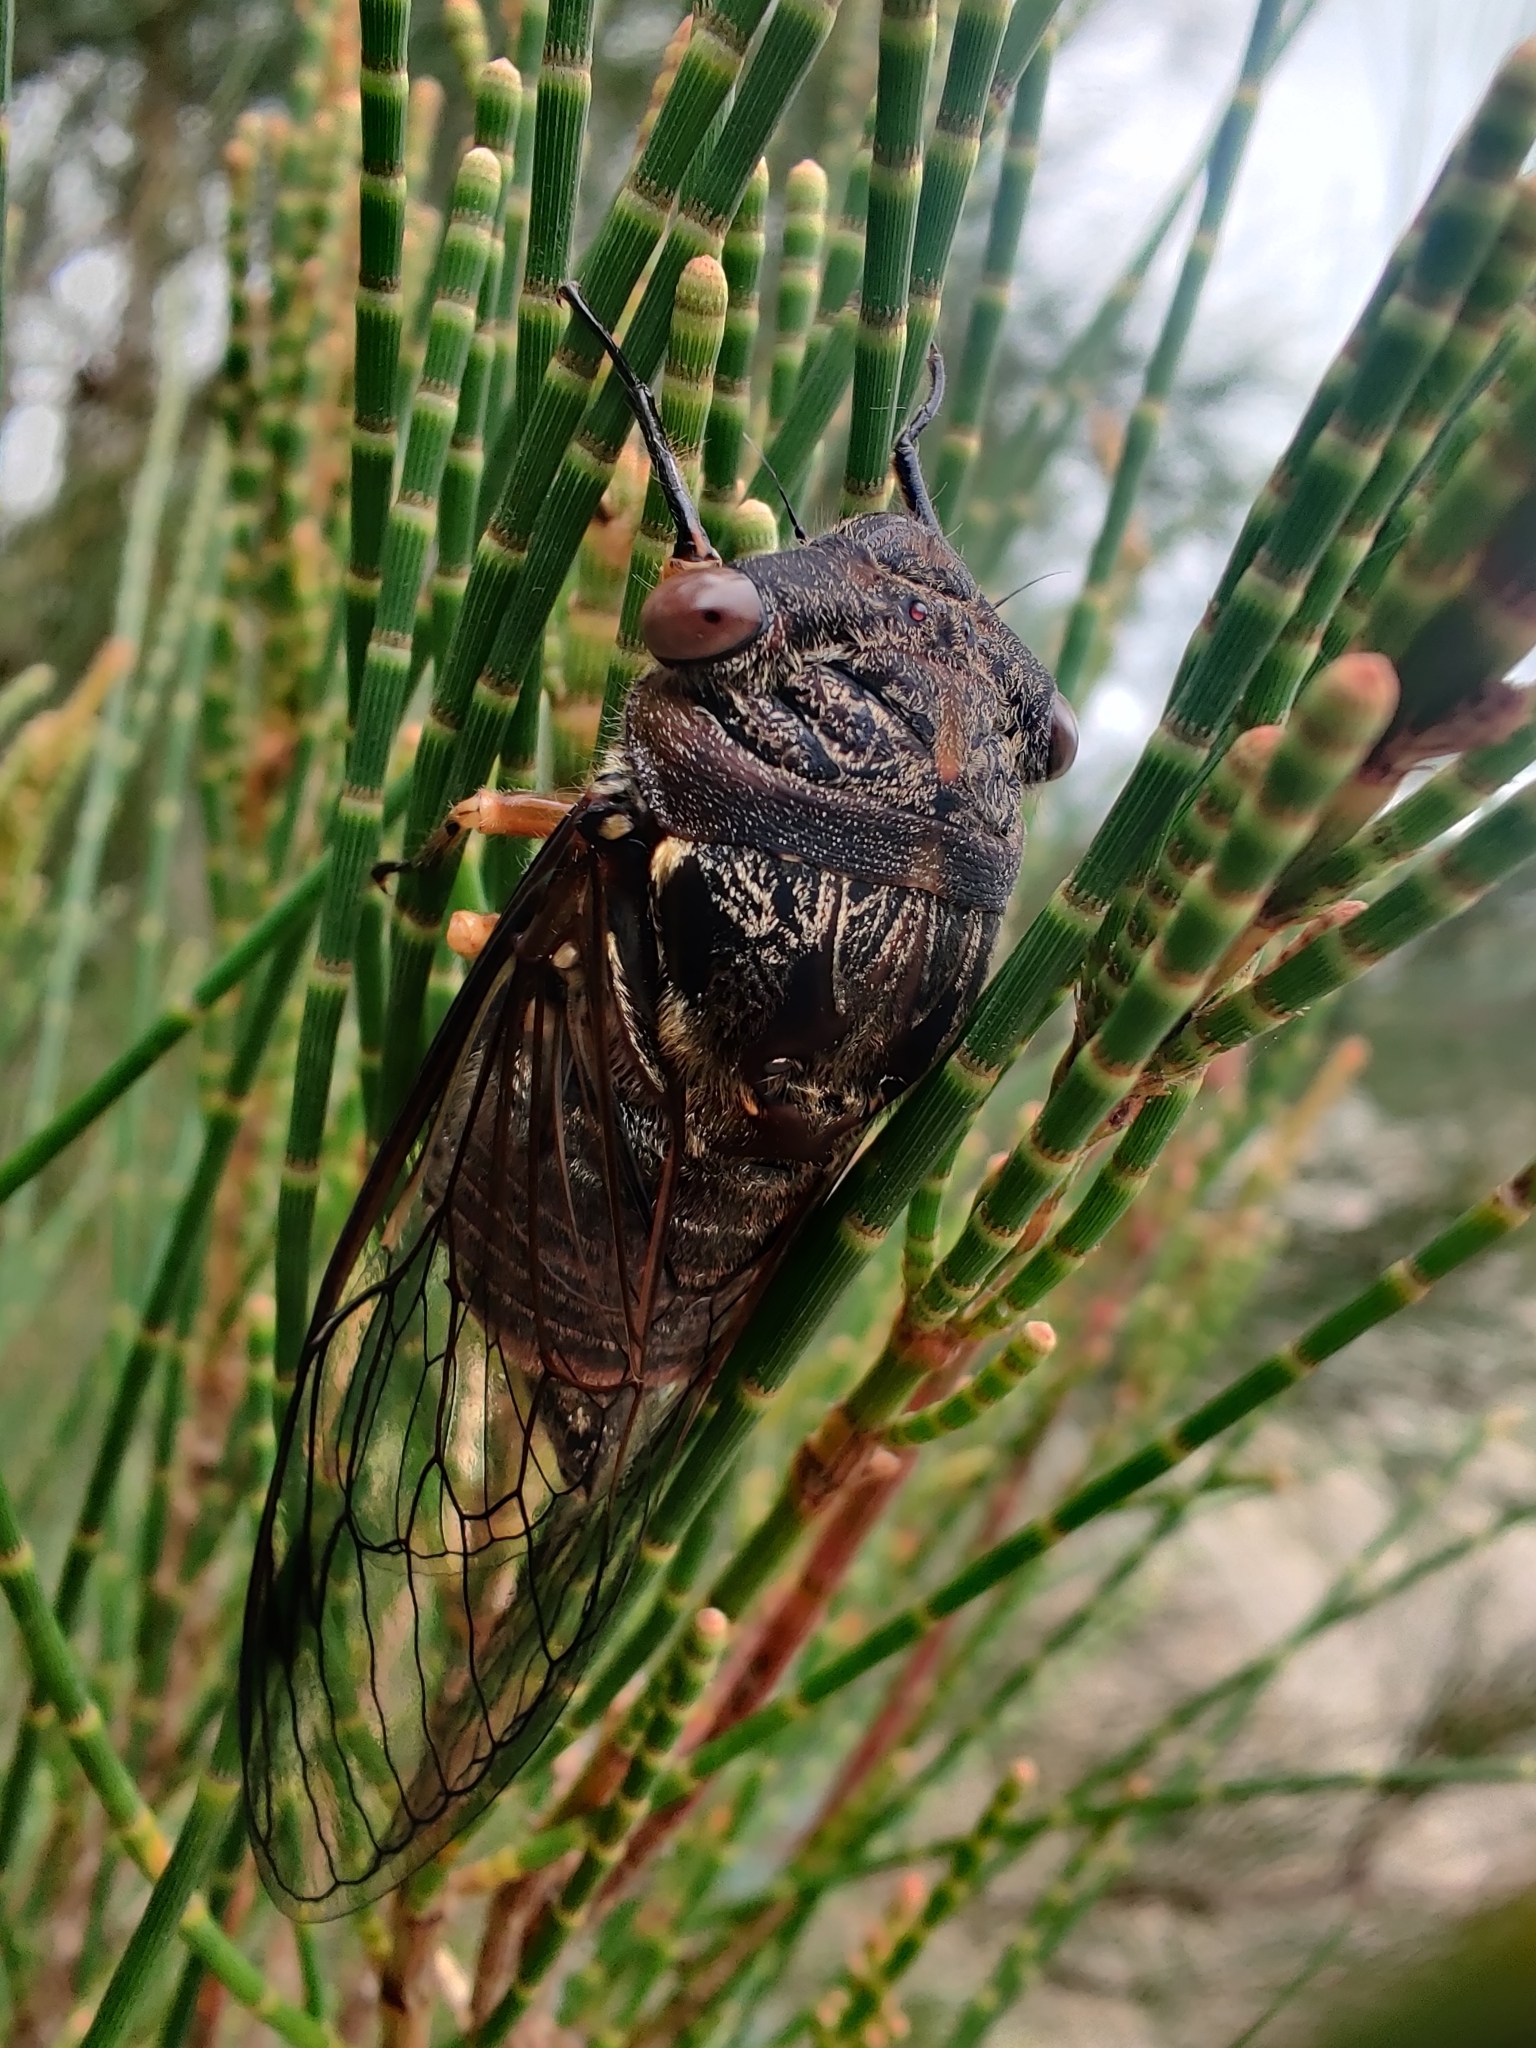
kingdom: Animalia
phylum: Arthropoda
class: Insecta
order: Hemiptera
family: Cicadidae
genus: Psaltoda
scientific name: Psaltoda plaga
